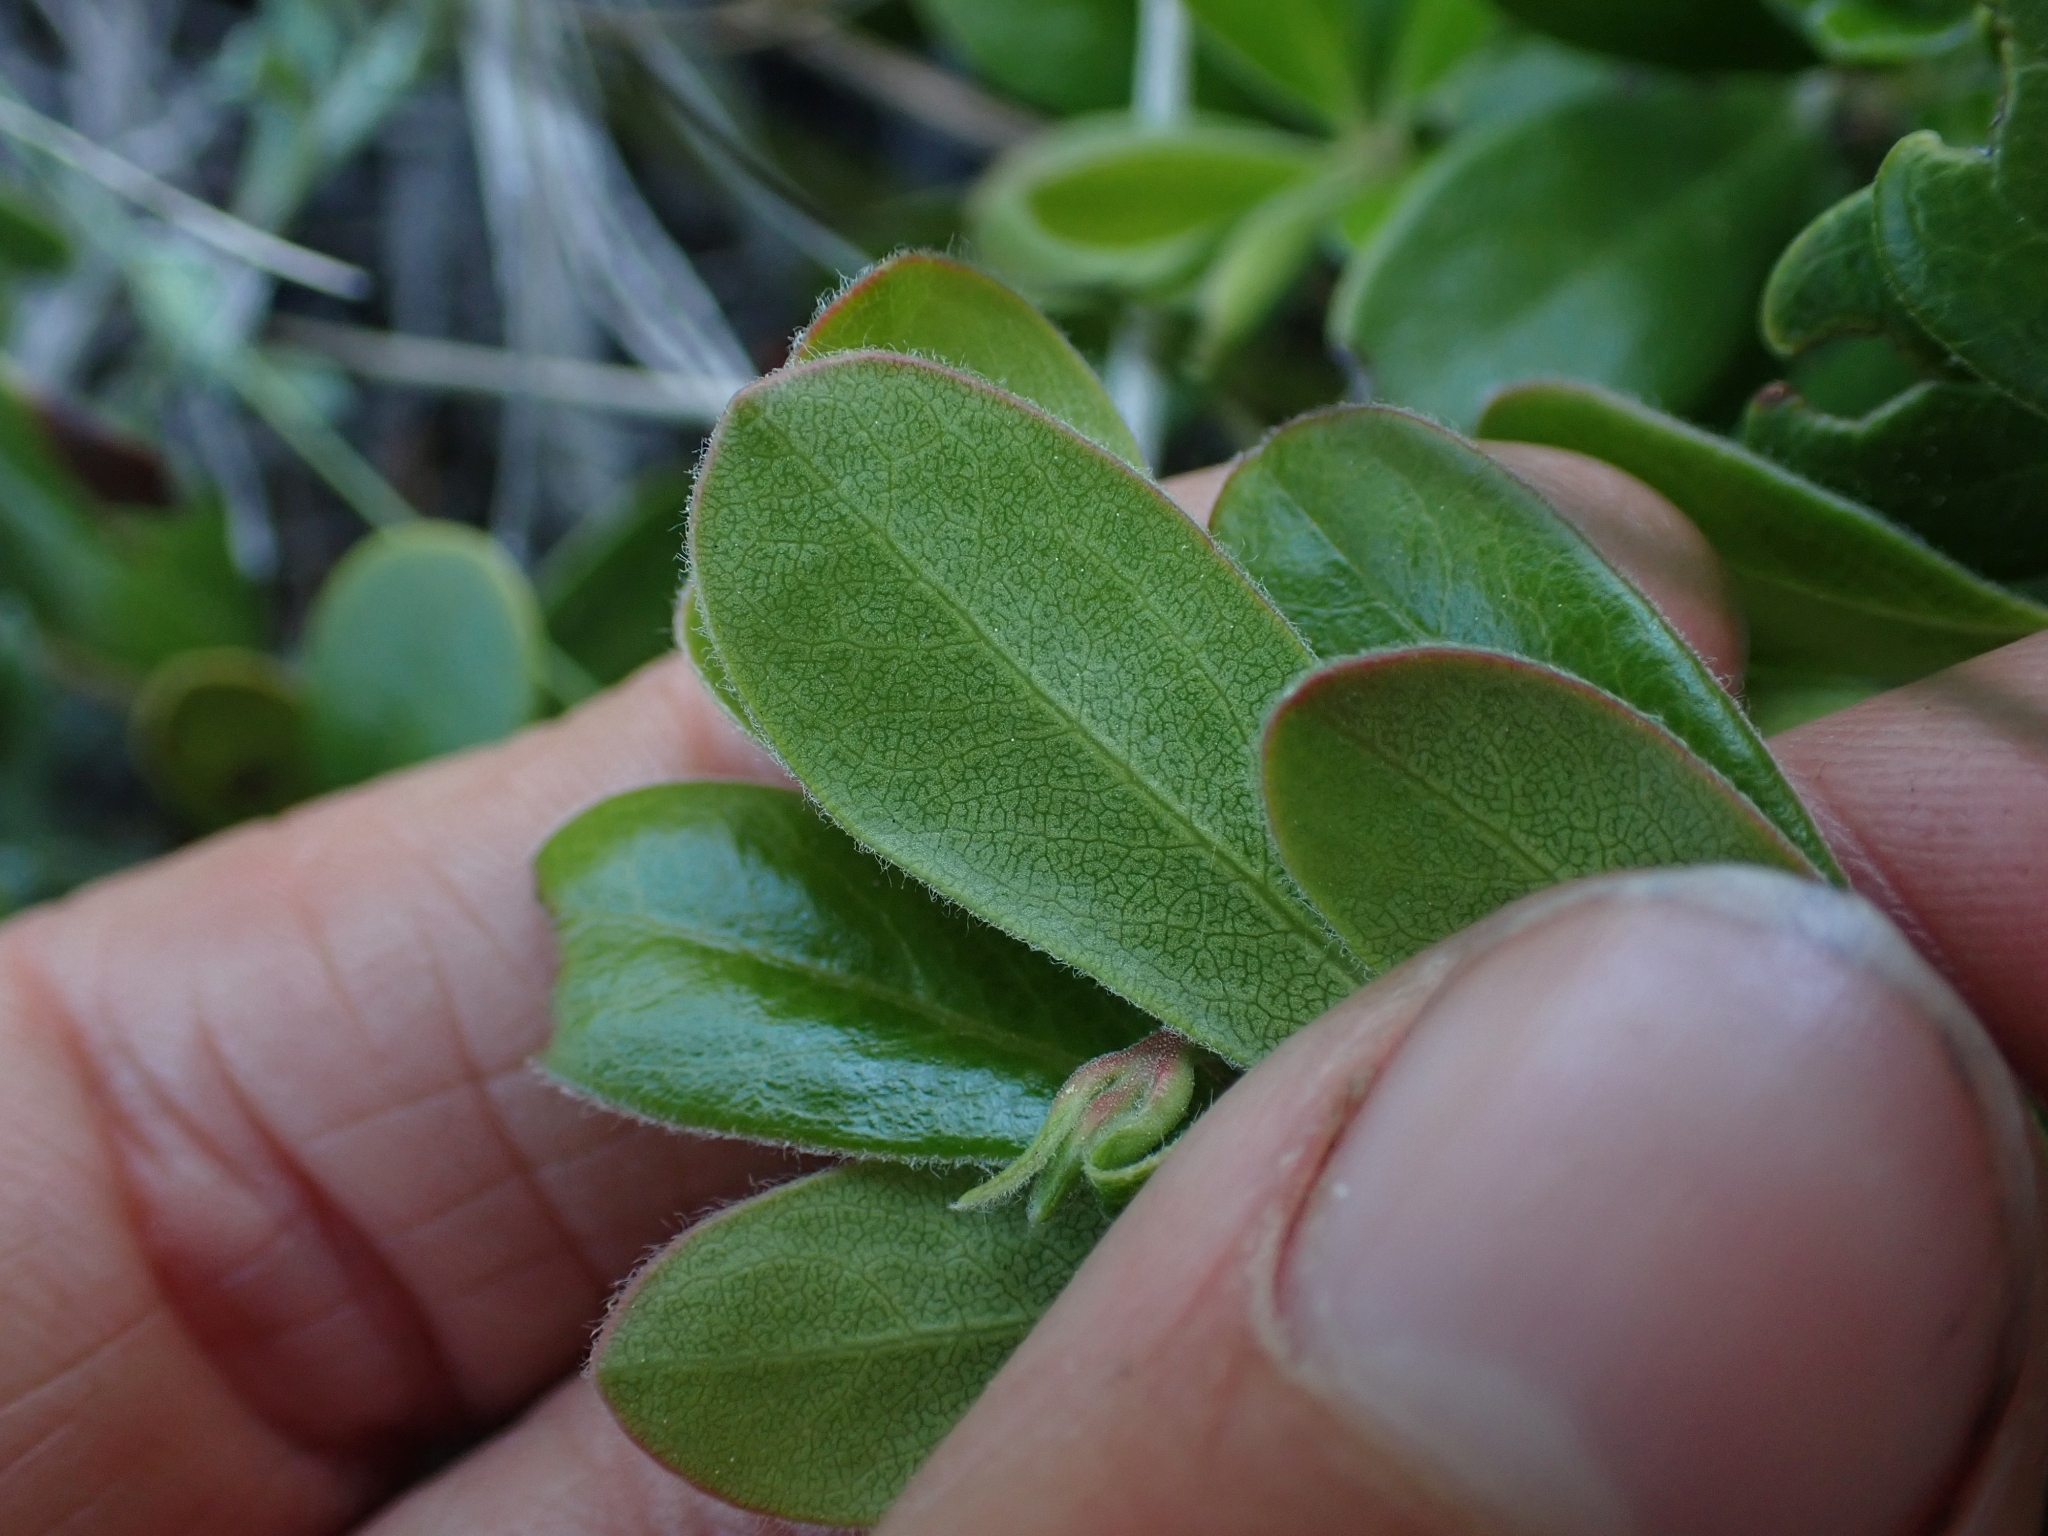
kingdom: Plantae
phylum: Tracheophyta
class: Magnoliopsida
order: Ericales
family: Ericaceae
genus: Arctostaphylos
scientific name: Arctostaphylos uva-ursi
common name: Bearberry
